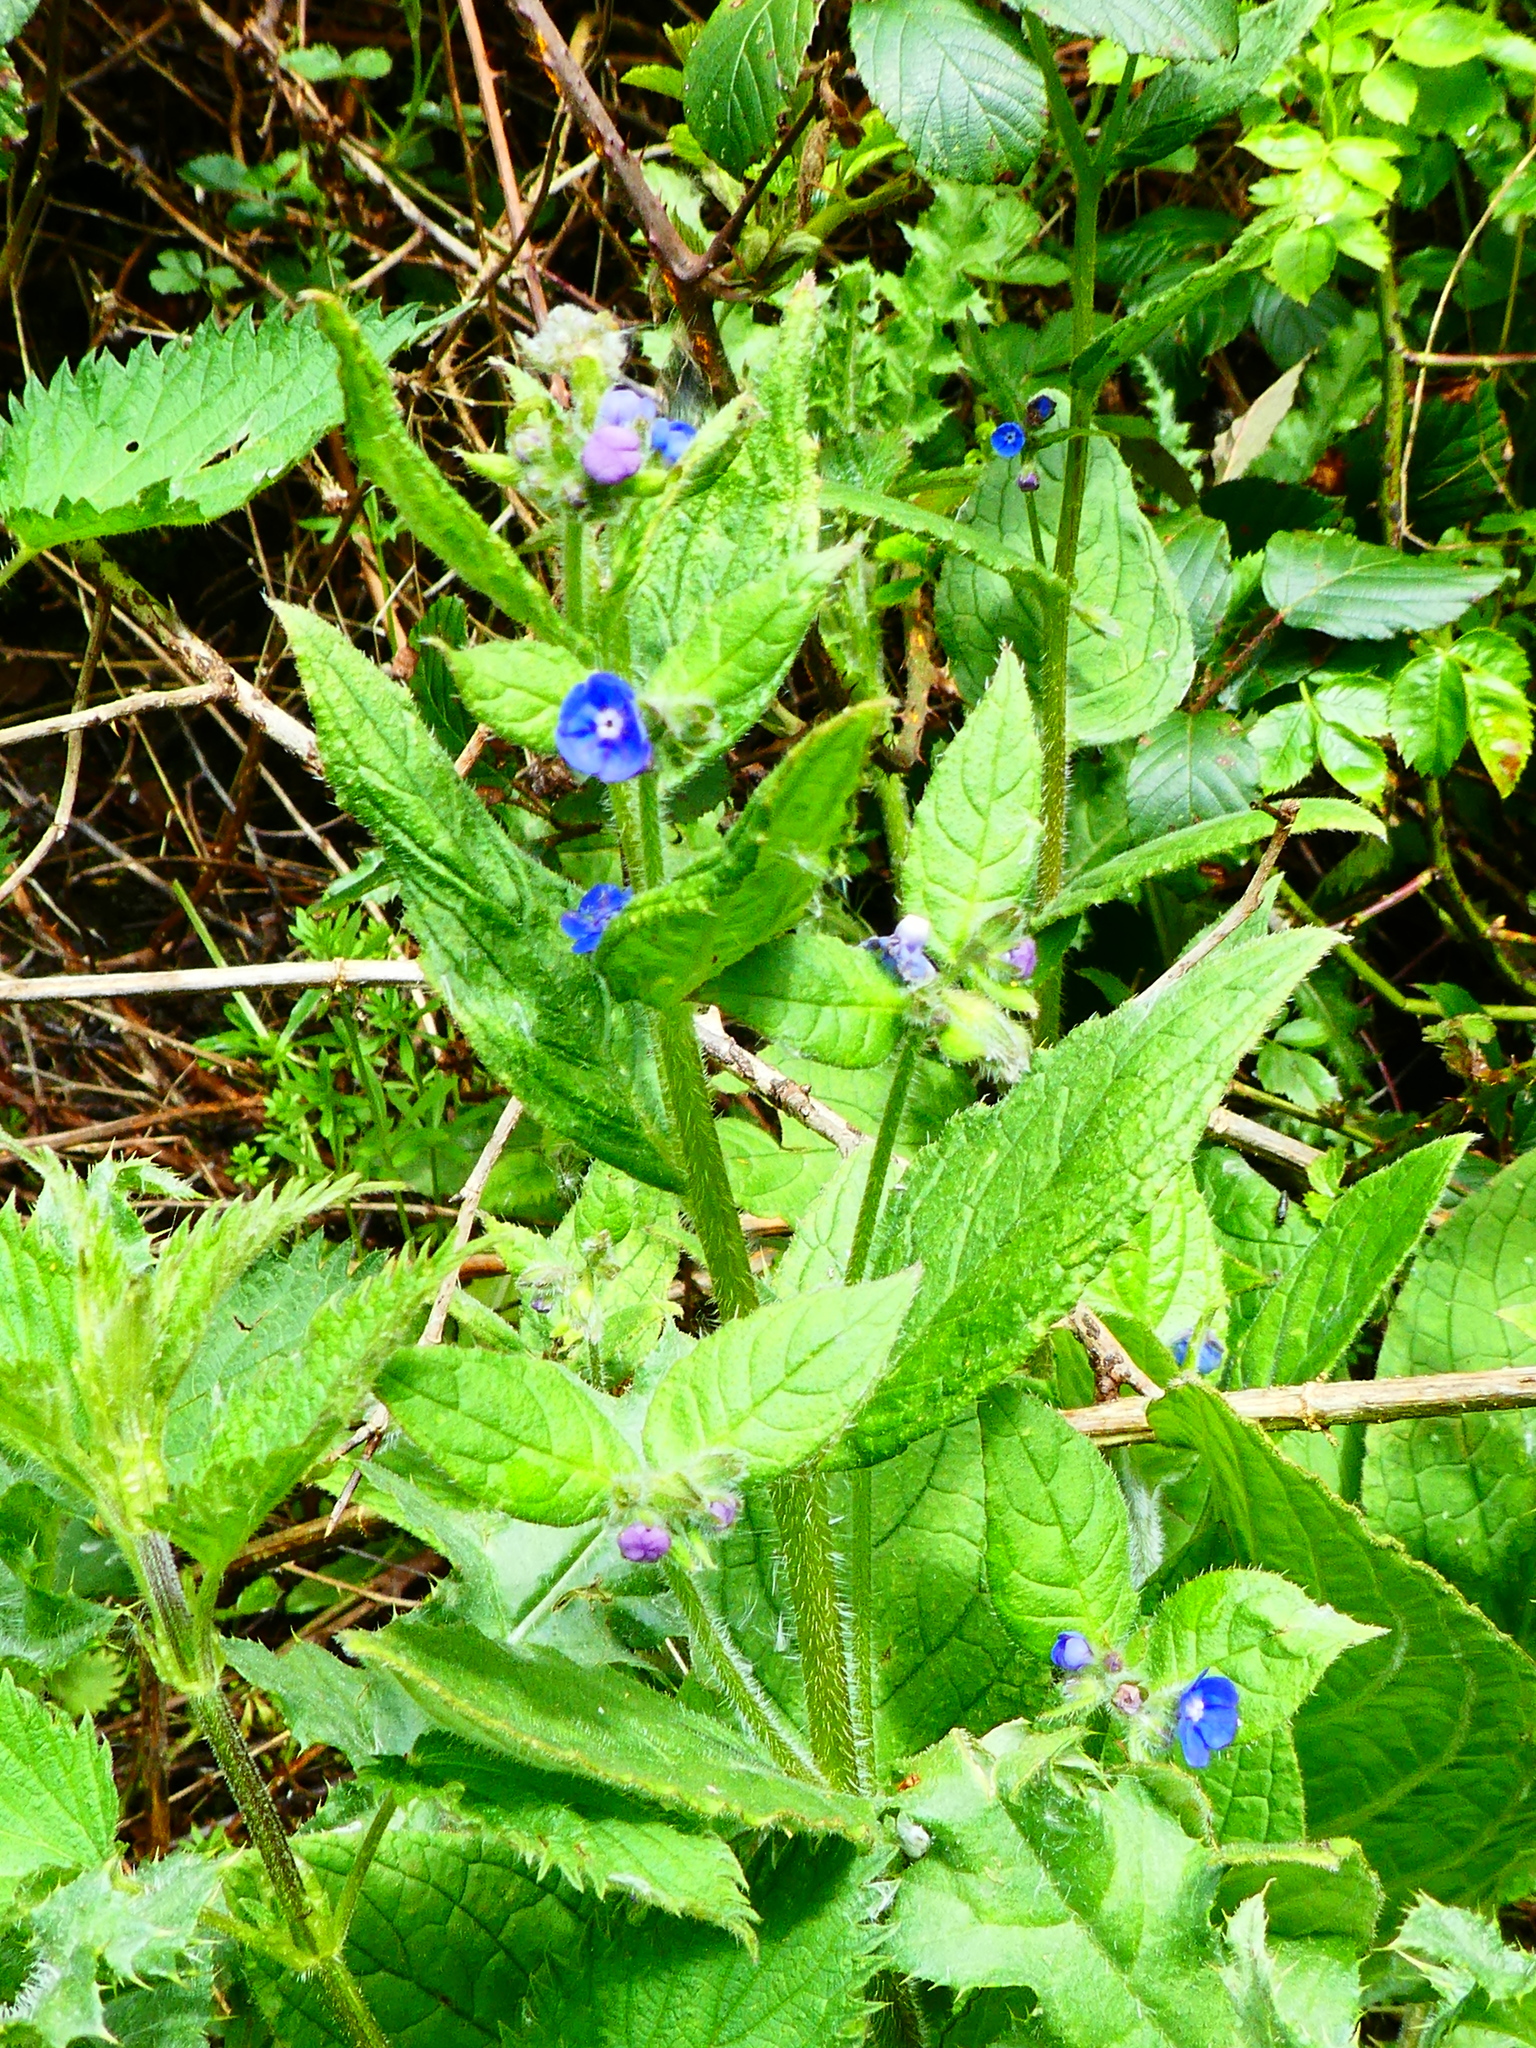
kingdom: Plantae
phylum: Tracheophyta
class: Magnoliopsida
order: Boraginales
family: Boraginaceae
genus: Pentaglottis
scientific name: Pentaglottis sempervirens
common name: Green alkanet
